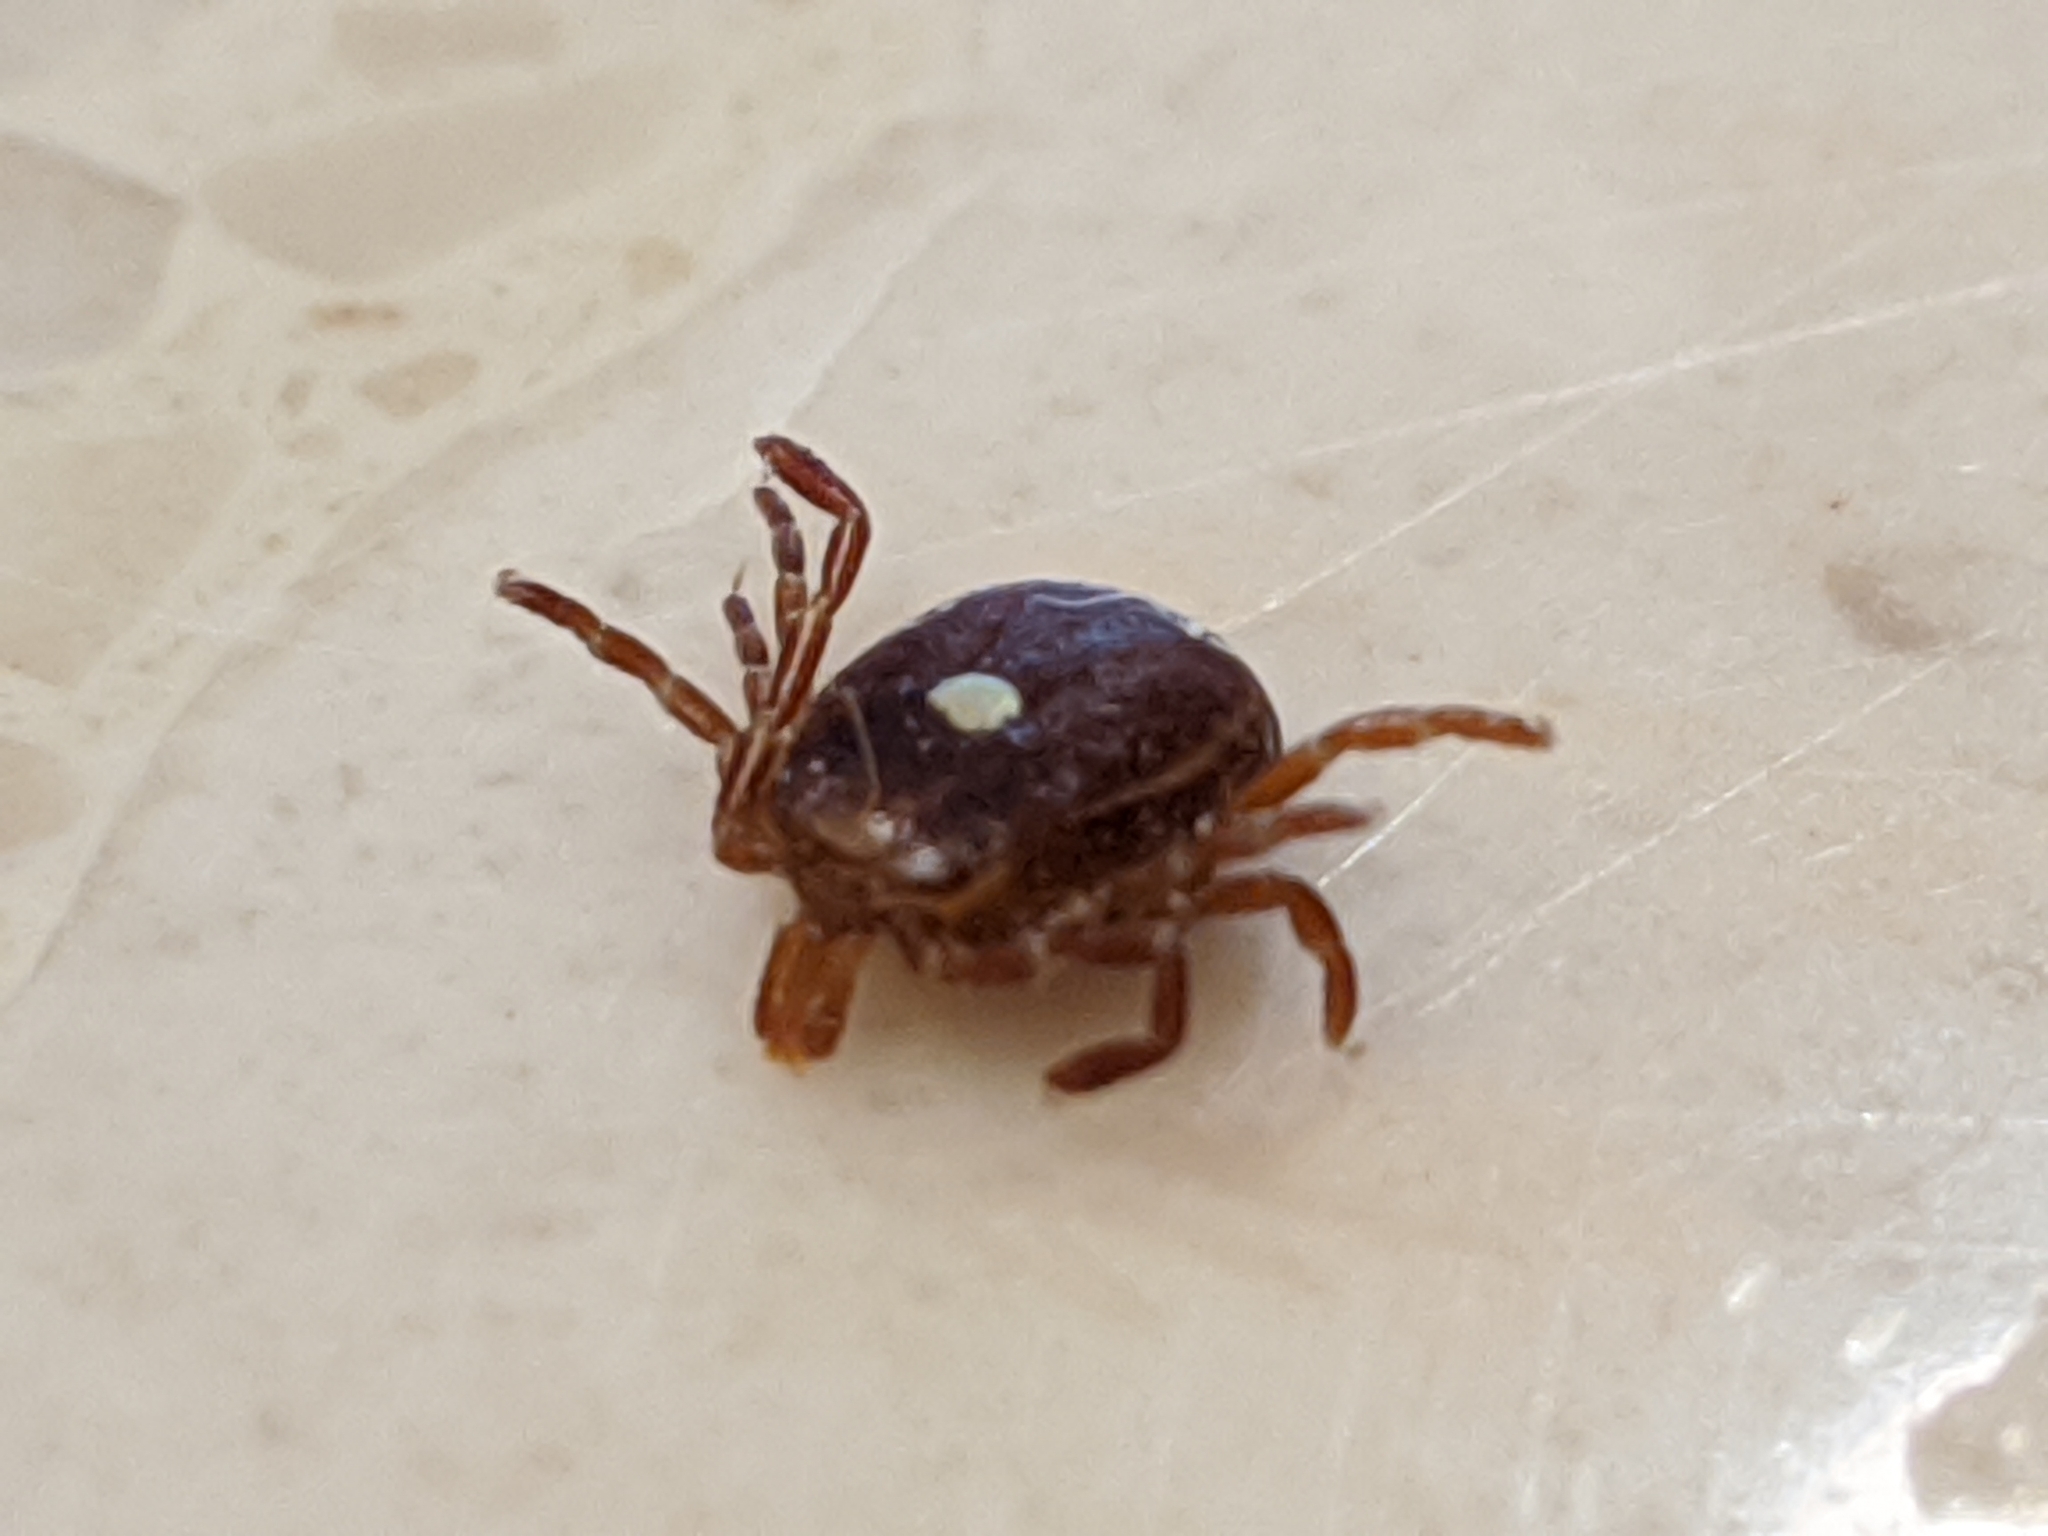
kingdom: Animalia
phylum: Arthropoda
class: Arachnida
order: Ixodida
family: Ixodidae
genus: Amblyomma
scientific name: Amblyomma americanum
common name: Lone star tick
